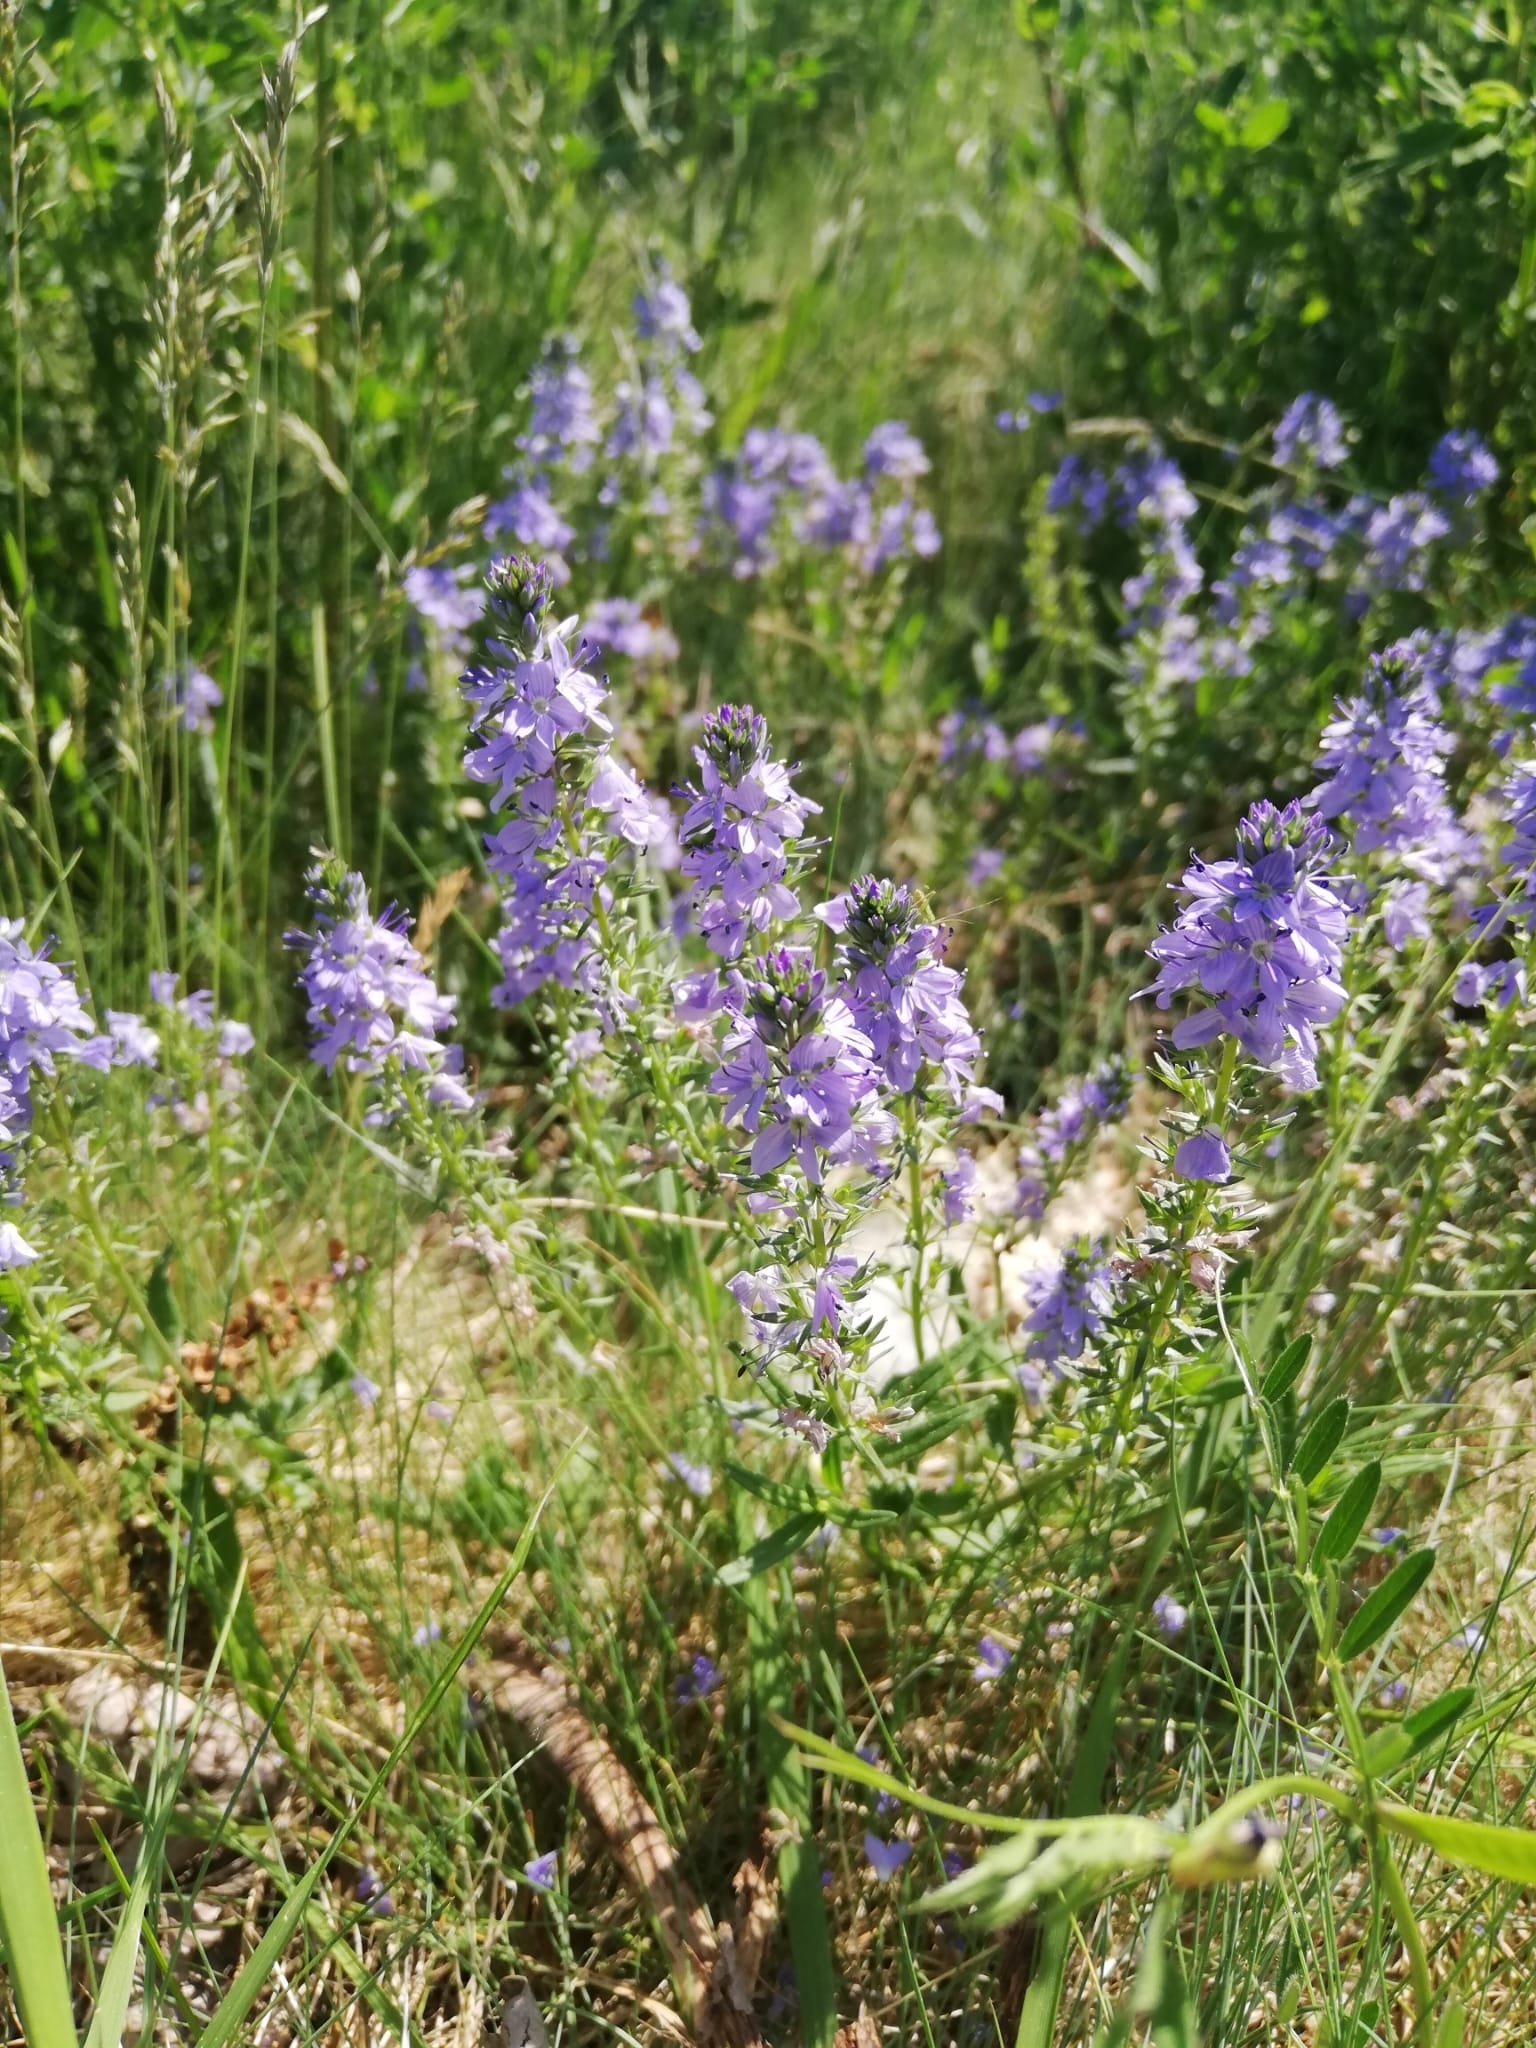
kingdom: Plantae
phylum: Tracheophyta
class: Magnoliopsida
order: Lamiales
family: Plantaginaceae
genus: Veronica
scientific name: Veronica prostrata
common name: Prostrate speedwell
